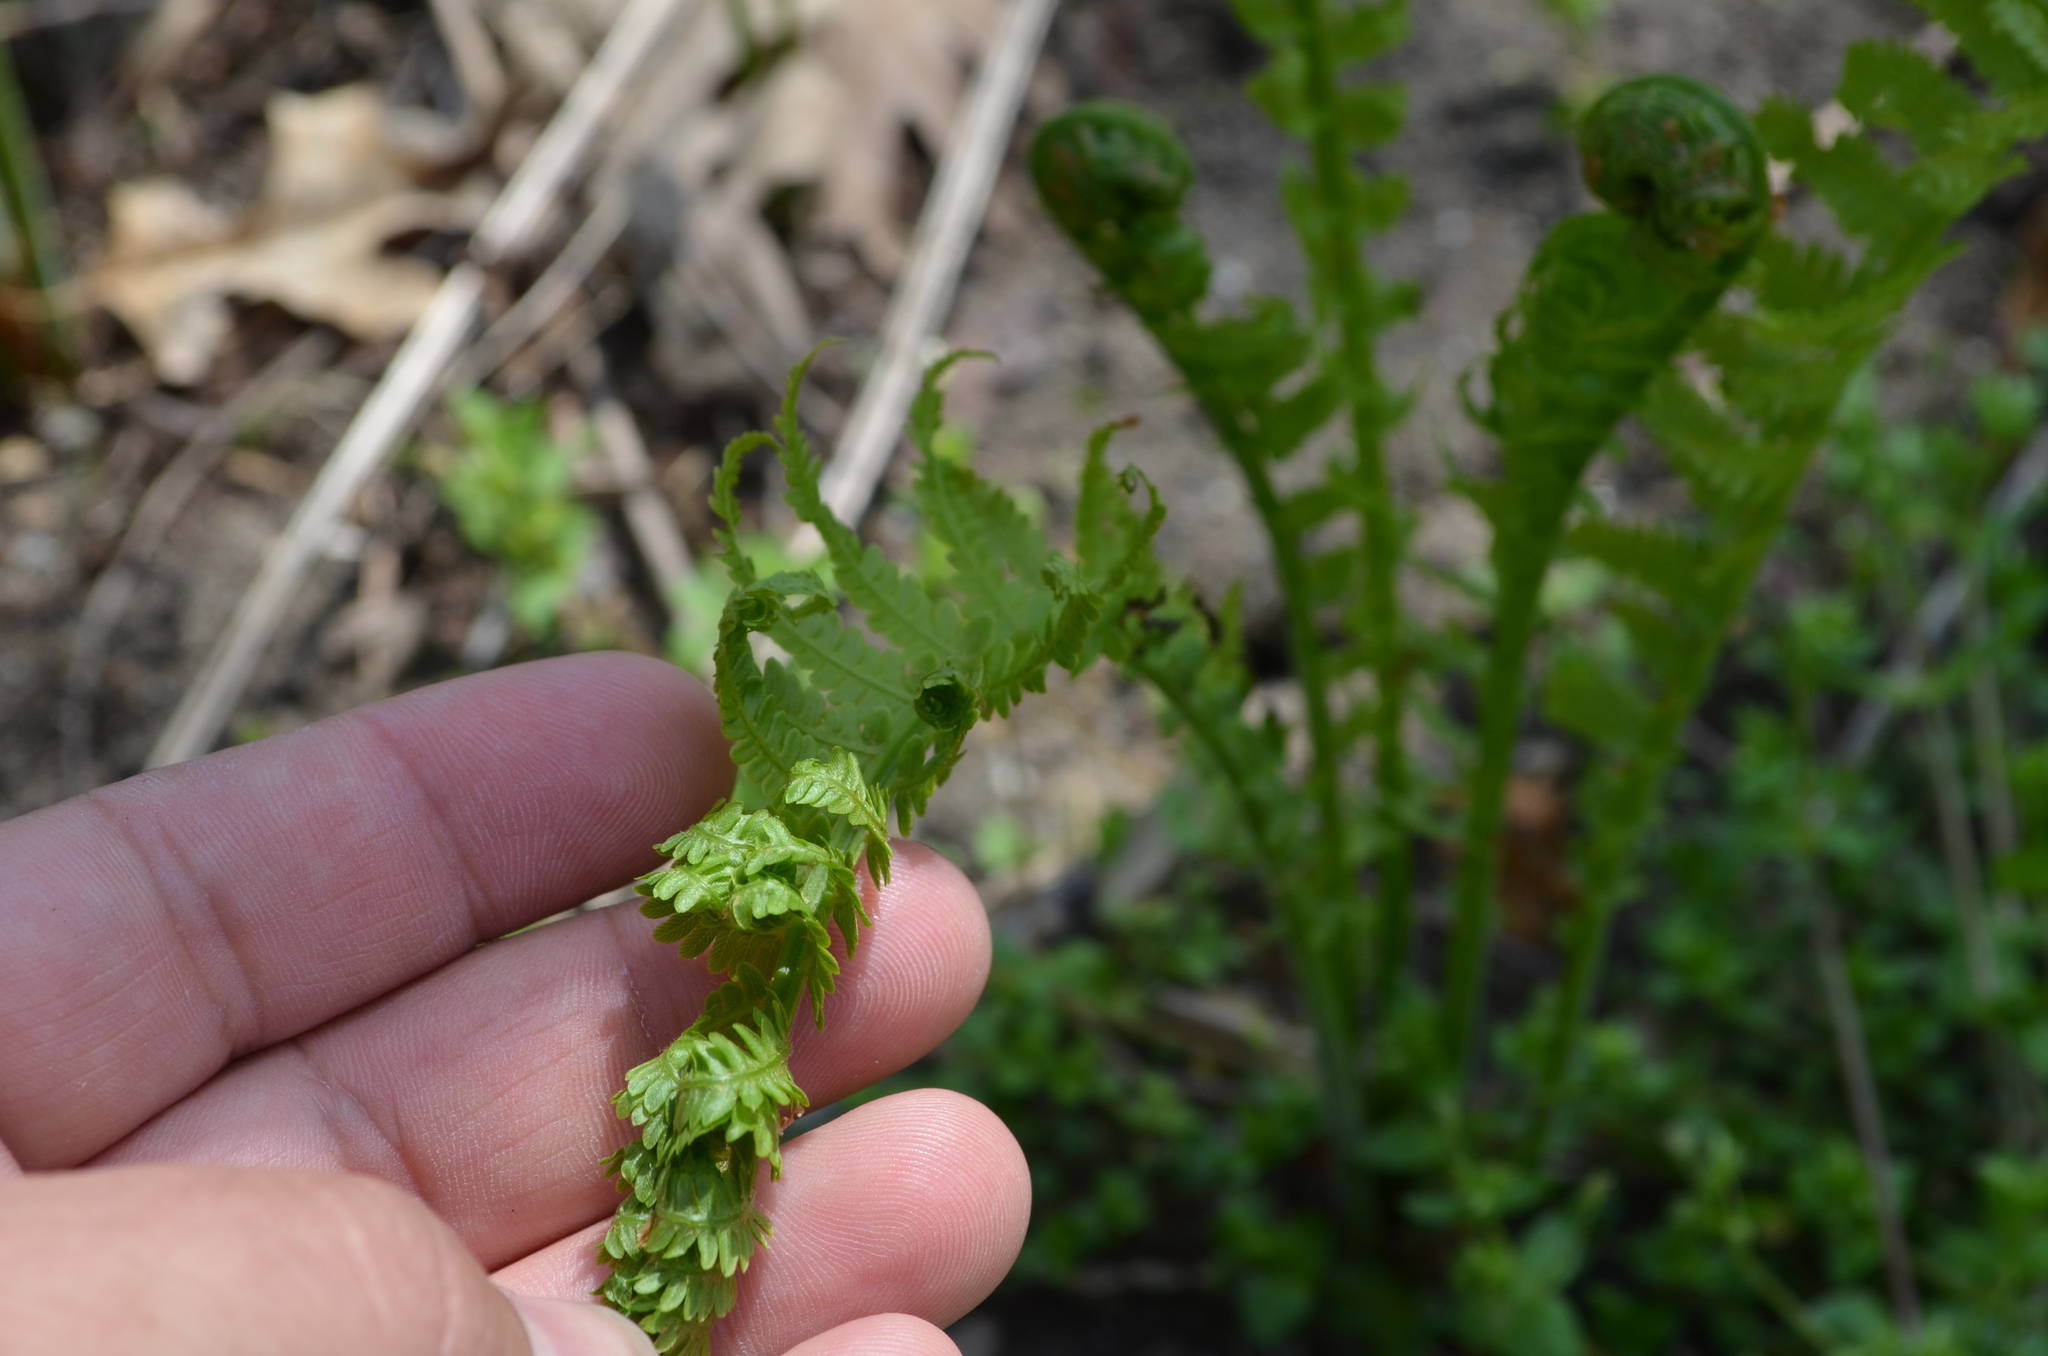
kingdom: Plantae
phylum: Tracheophyta
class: Polypodiopsida
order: Polypodiales
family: Onocleaceae
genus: Matteuccia
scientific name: Matteuccia struthiopteris
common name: Ostrich fern
